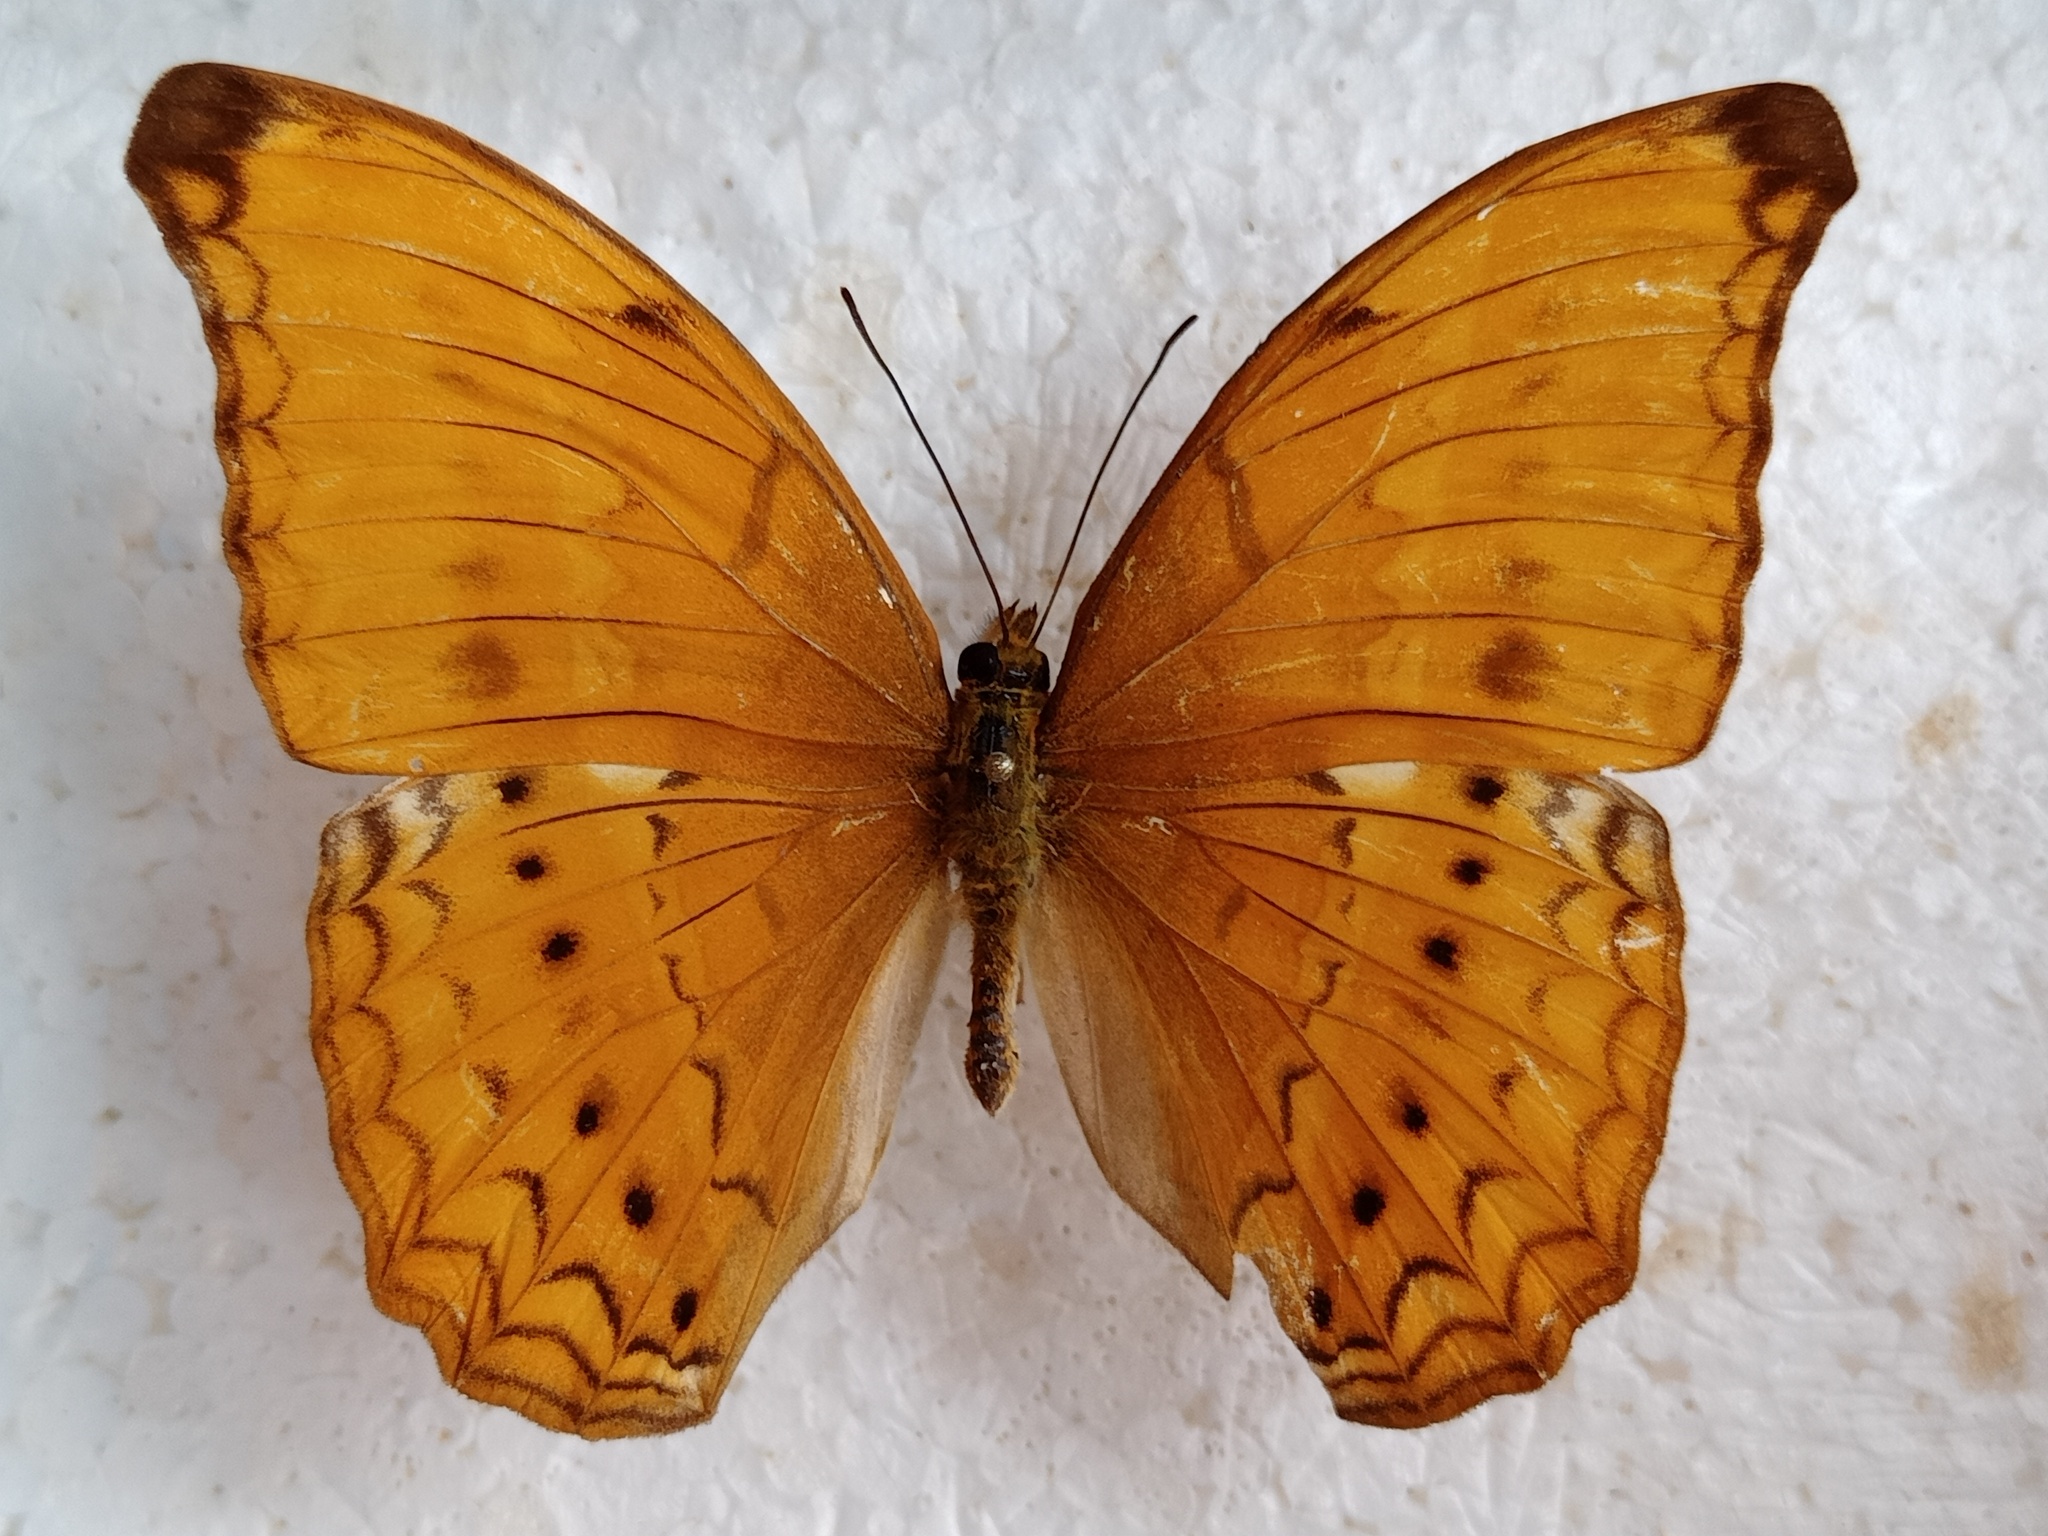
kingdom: Animalia
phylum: Arthropoda
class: Insecta
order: Lepidoptera
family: Nymphalidae
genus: Cirrochroa
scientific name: Cirrochroa aoris
